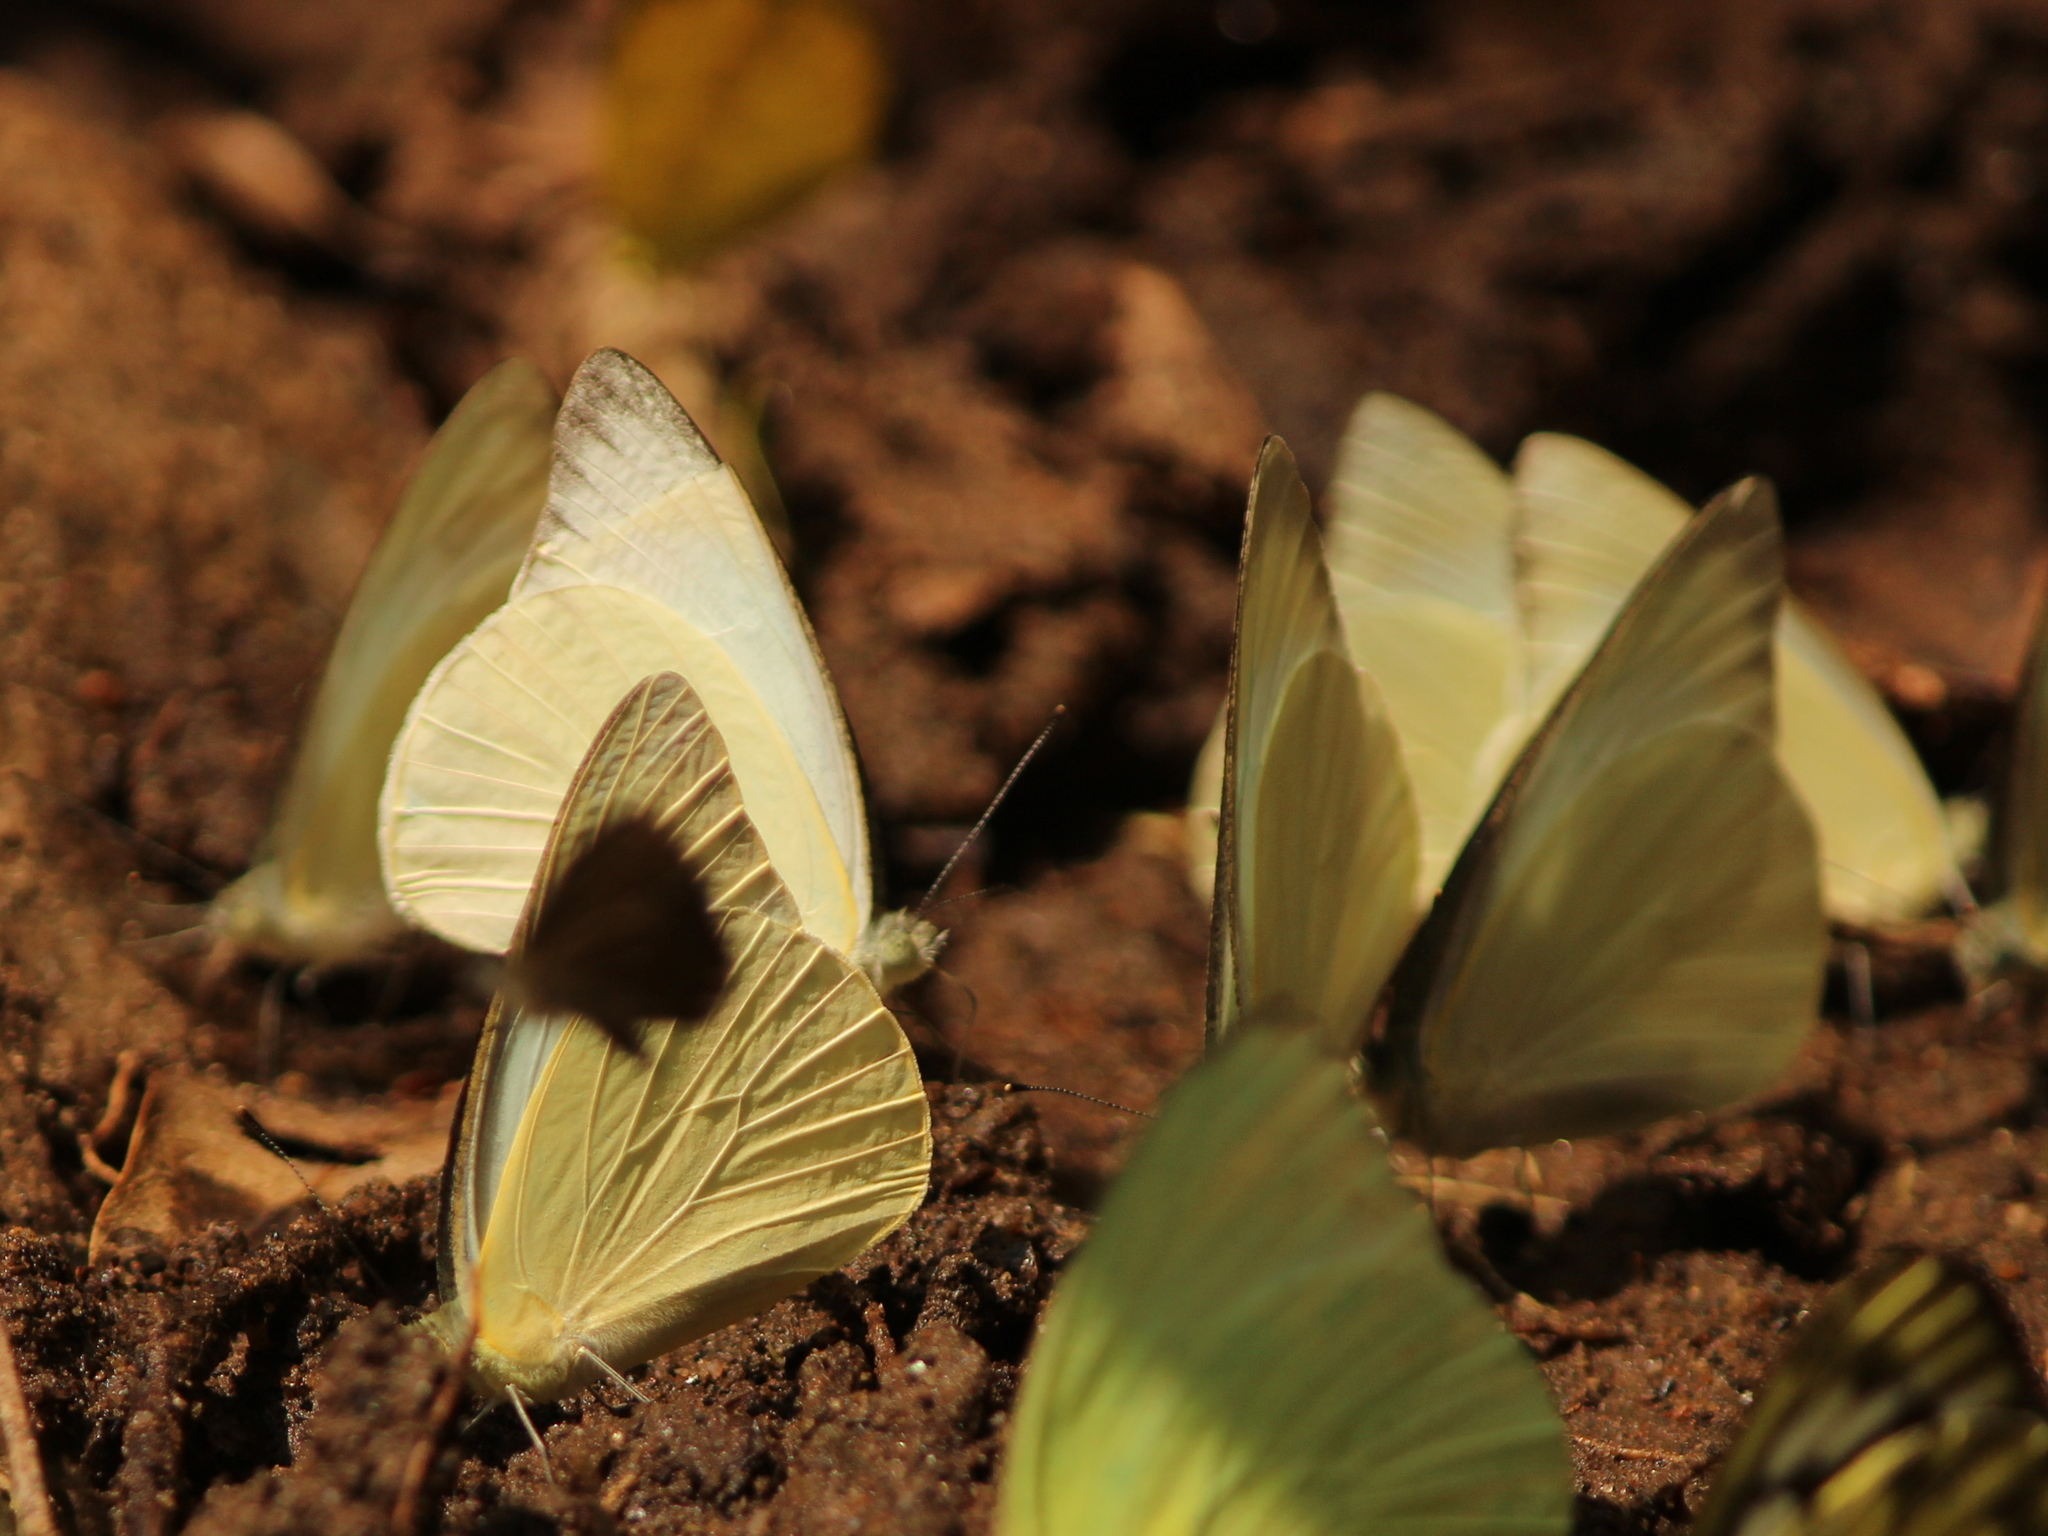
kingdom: Animalia
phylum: Arthropoda
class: Insecta
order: Lepidoptera
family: Pieridae
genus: Appias
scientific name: Appias albina
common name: Common albatross
